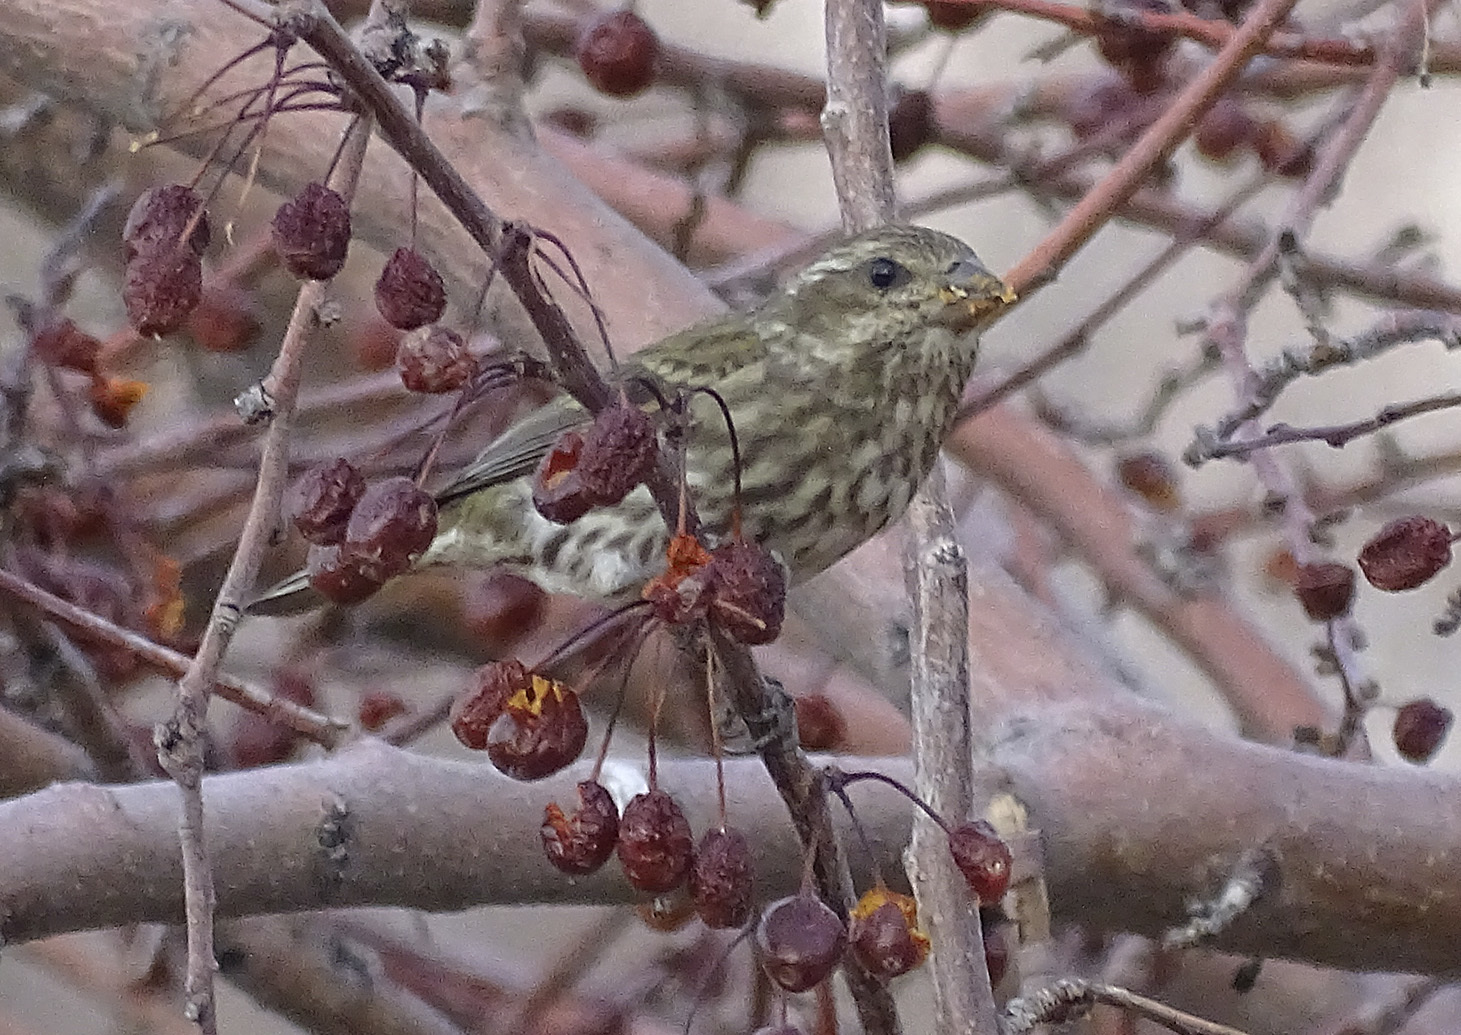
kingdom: Animalia
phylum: Chordata
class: Aves
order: Passeriformes
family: Fringillidae
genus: Haemorhous
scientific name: Haemorhous purpureus
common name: Purple finch
